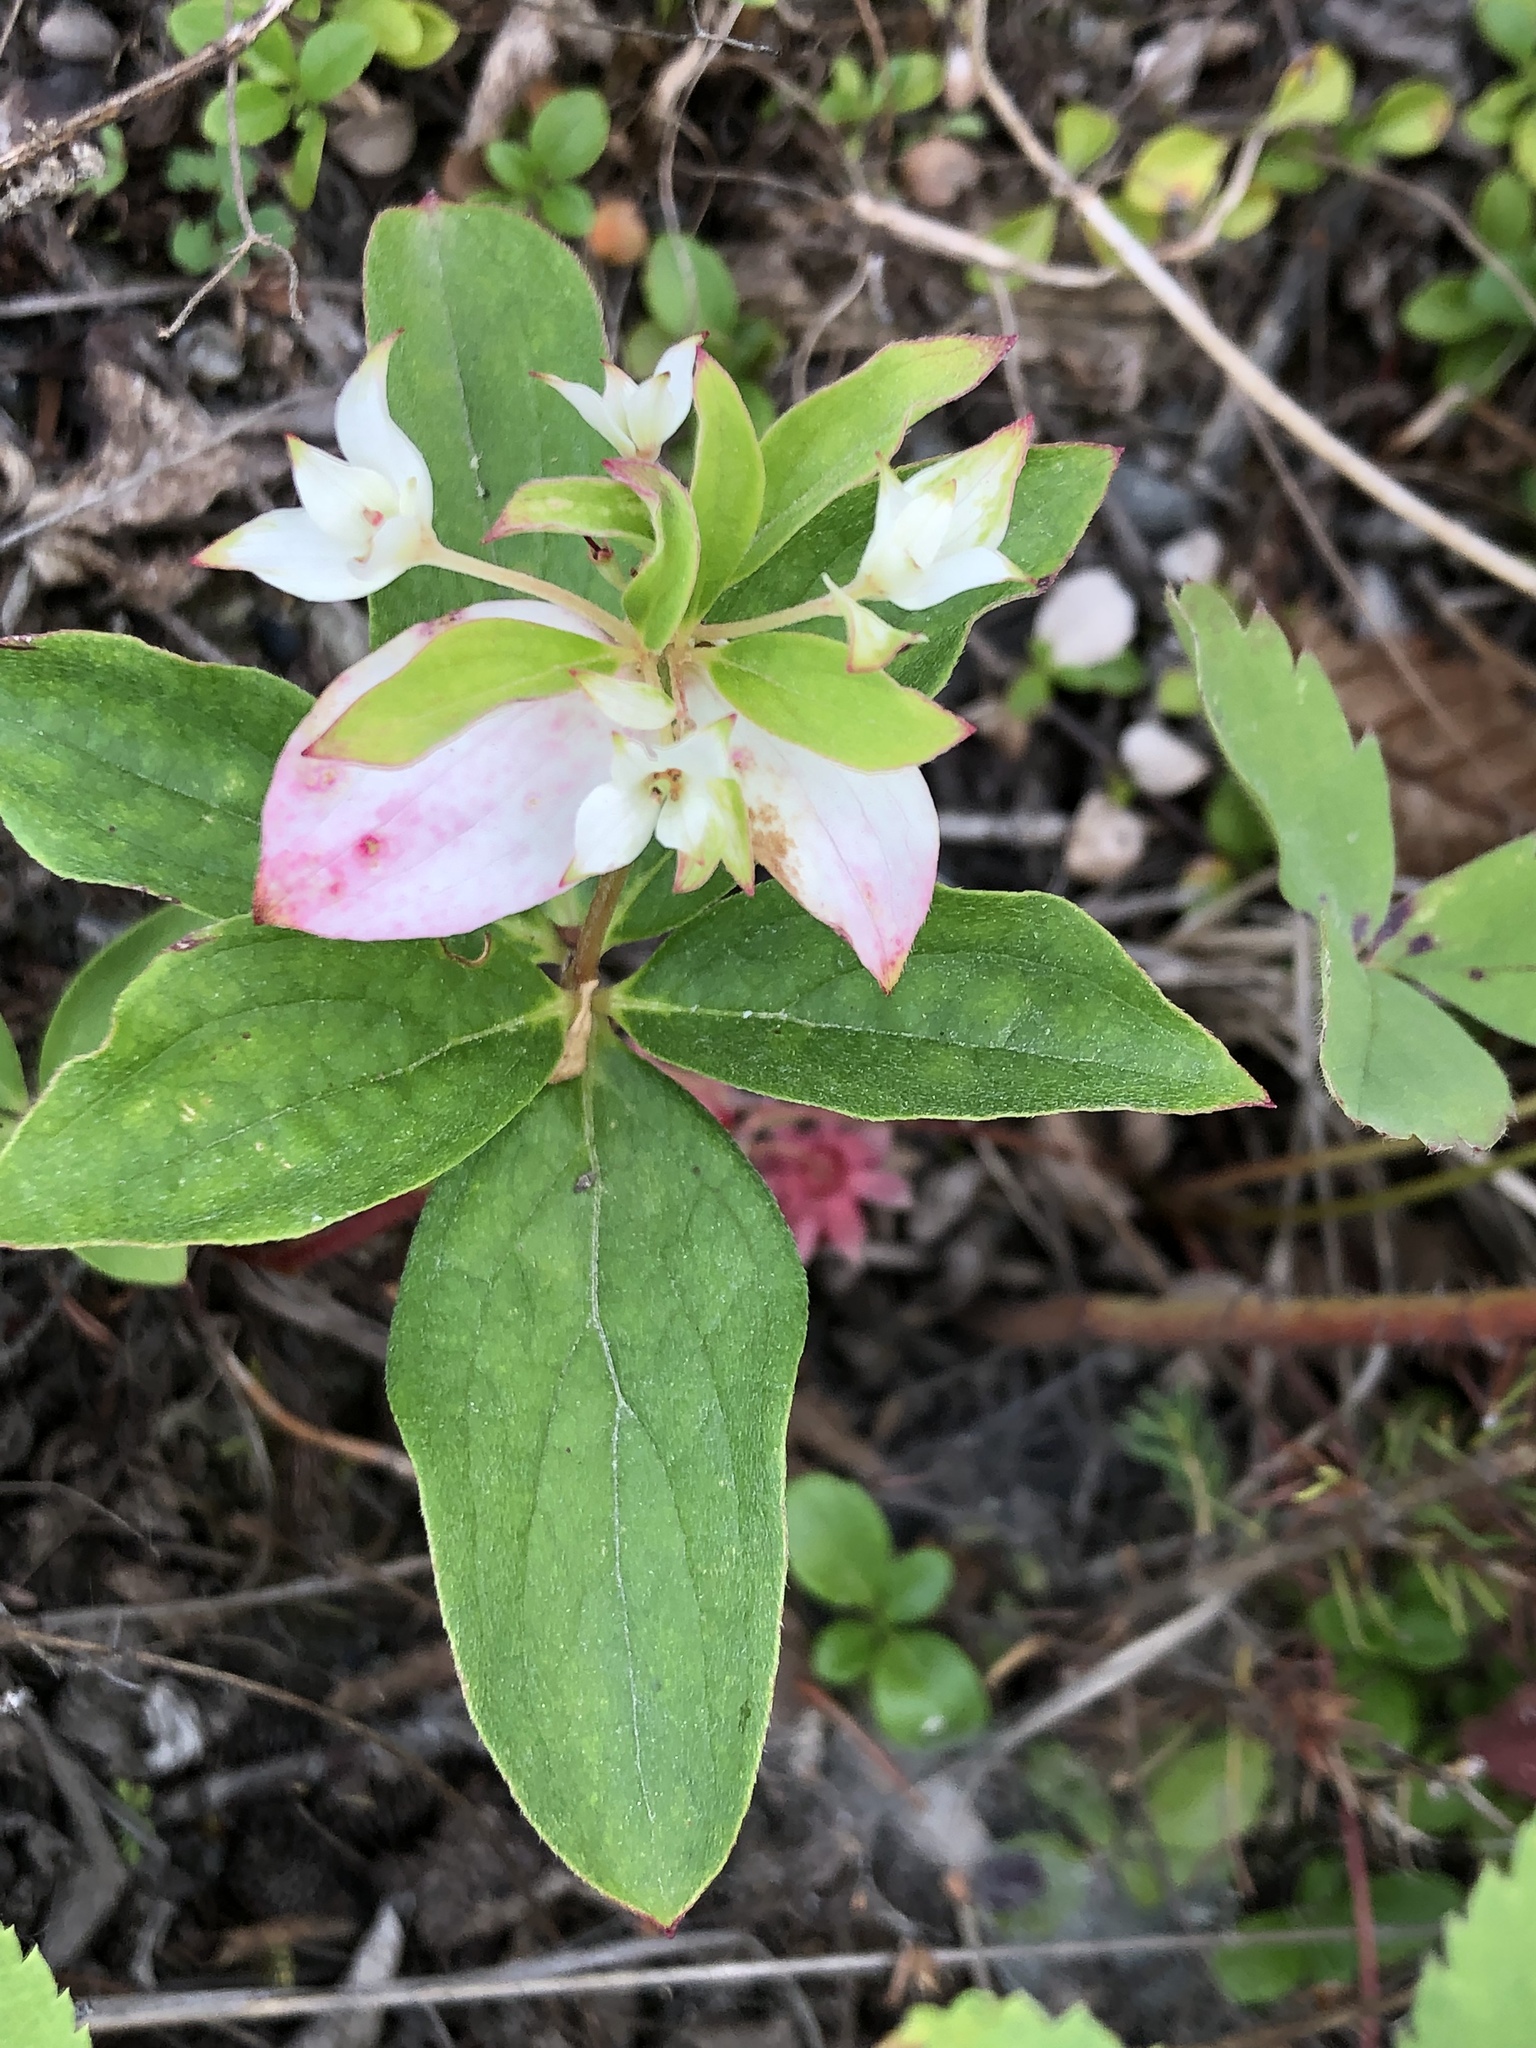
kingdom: Plantae
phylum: Tracheophyta
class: Magnoliopsida
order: Cornales
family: Cornaceae
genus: Cornus
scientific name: Cornus canadensis
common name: Creeping dogwood
